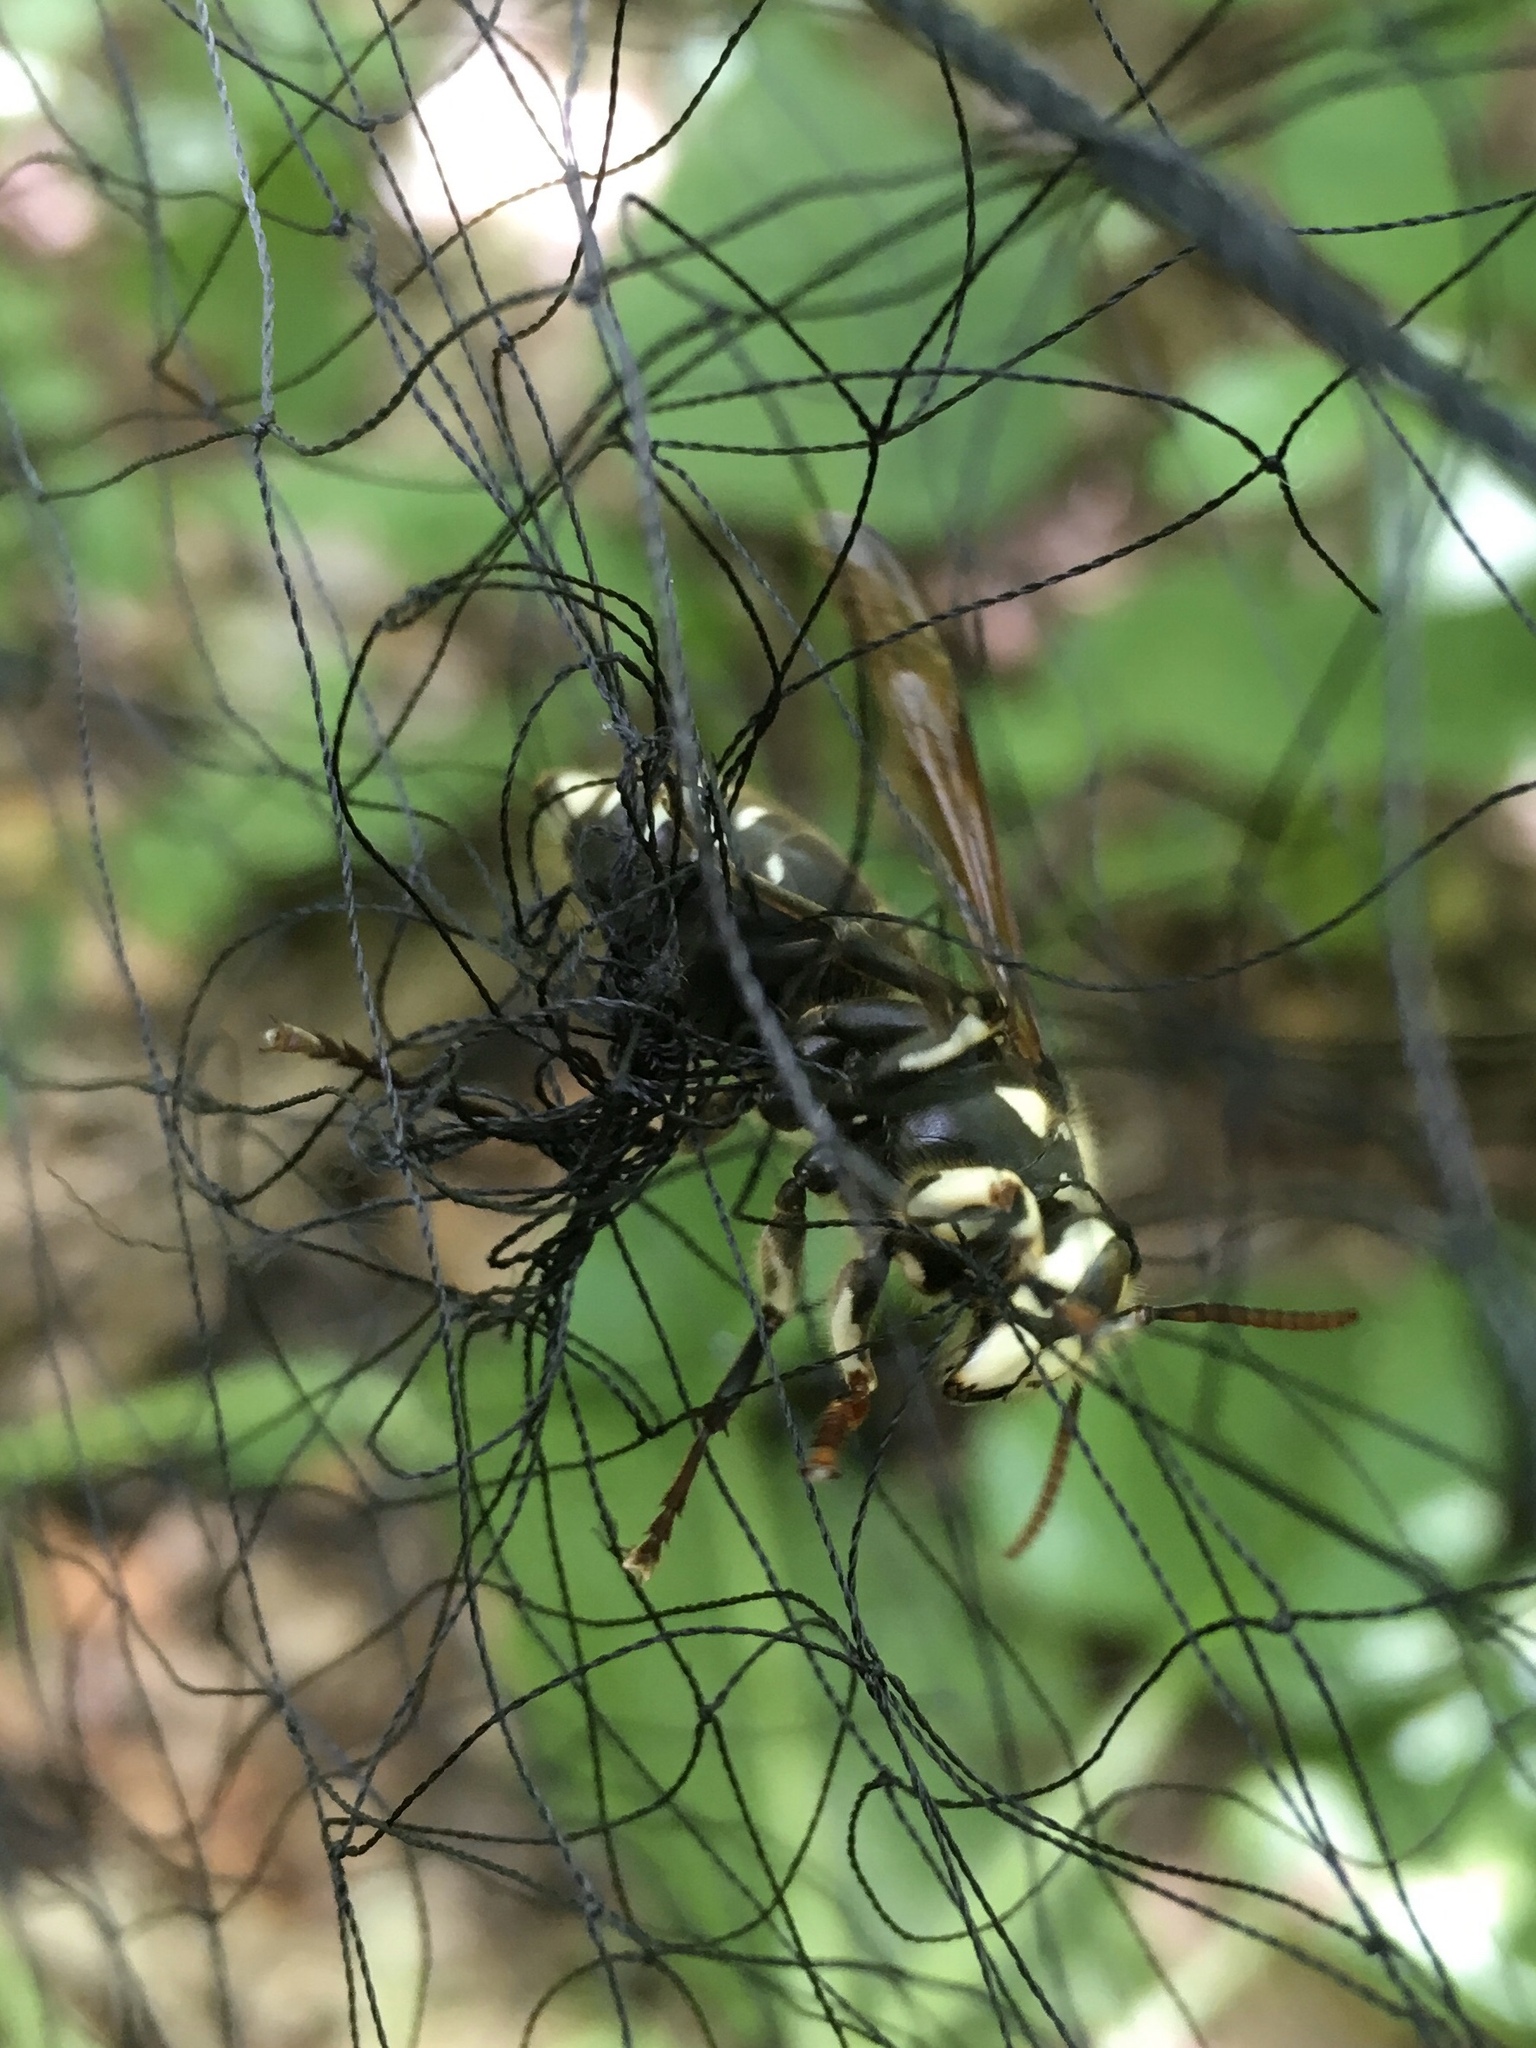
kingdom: Animalia
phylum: Arthropoda
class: Insecta
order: Hymenoptera
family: Vespidae
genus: Dolichovespula
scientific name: Dolichovespula maculata
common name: Bald-faced hornet
